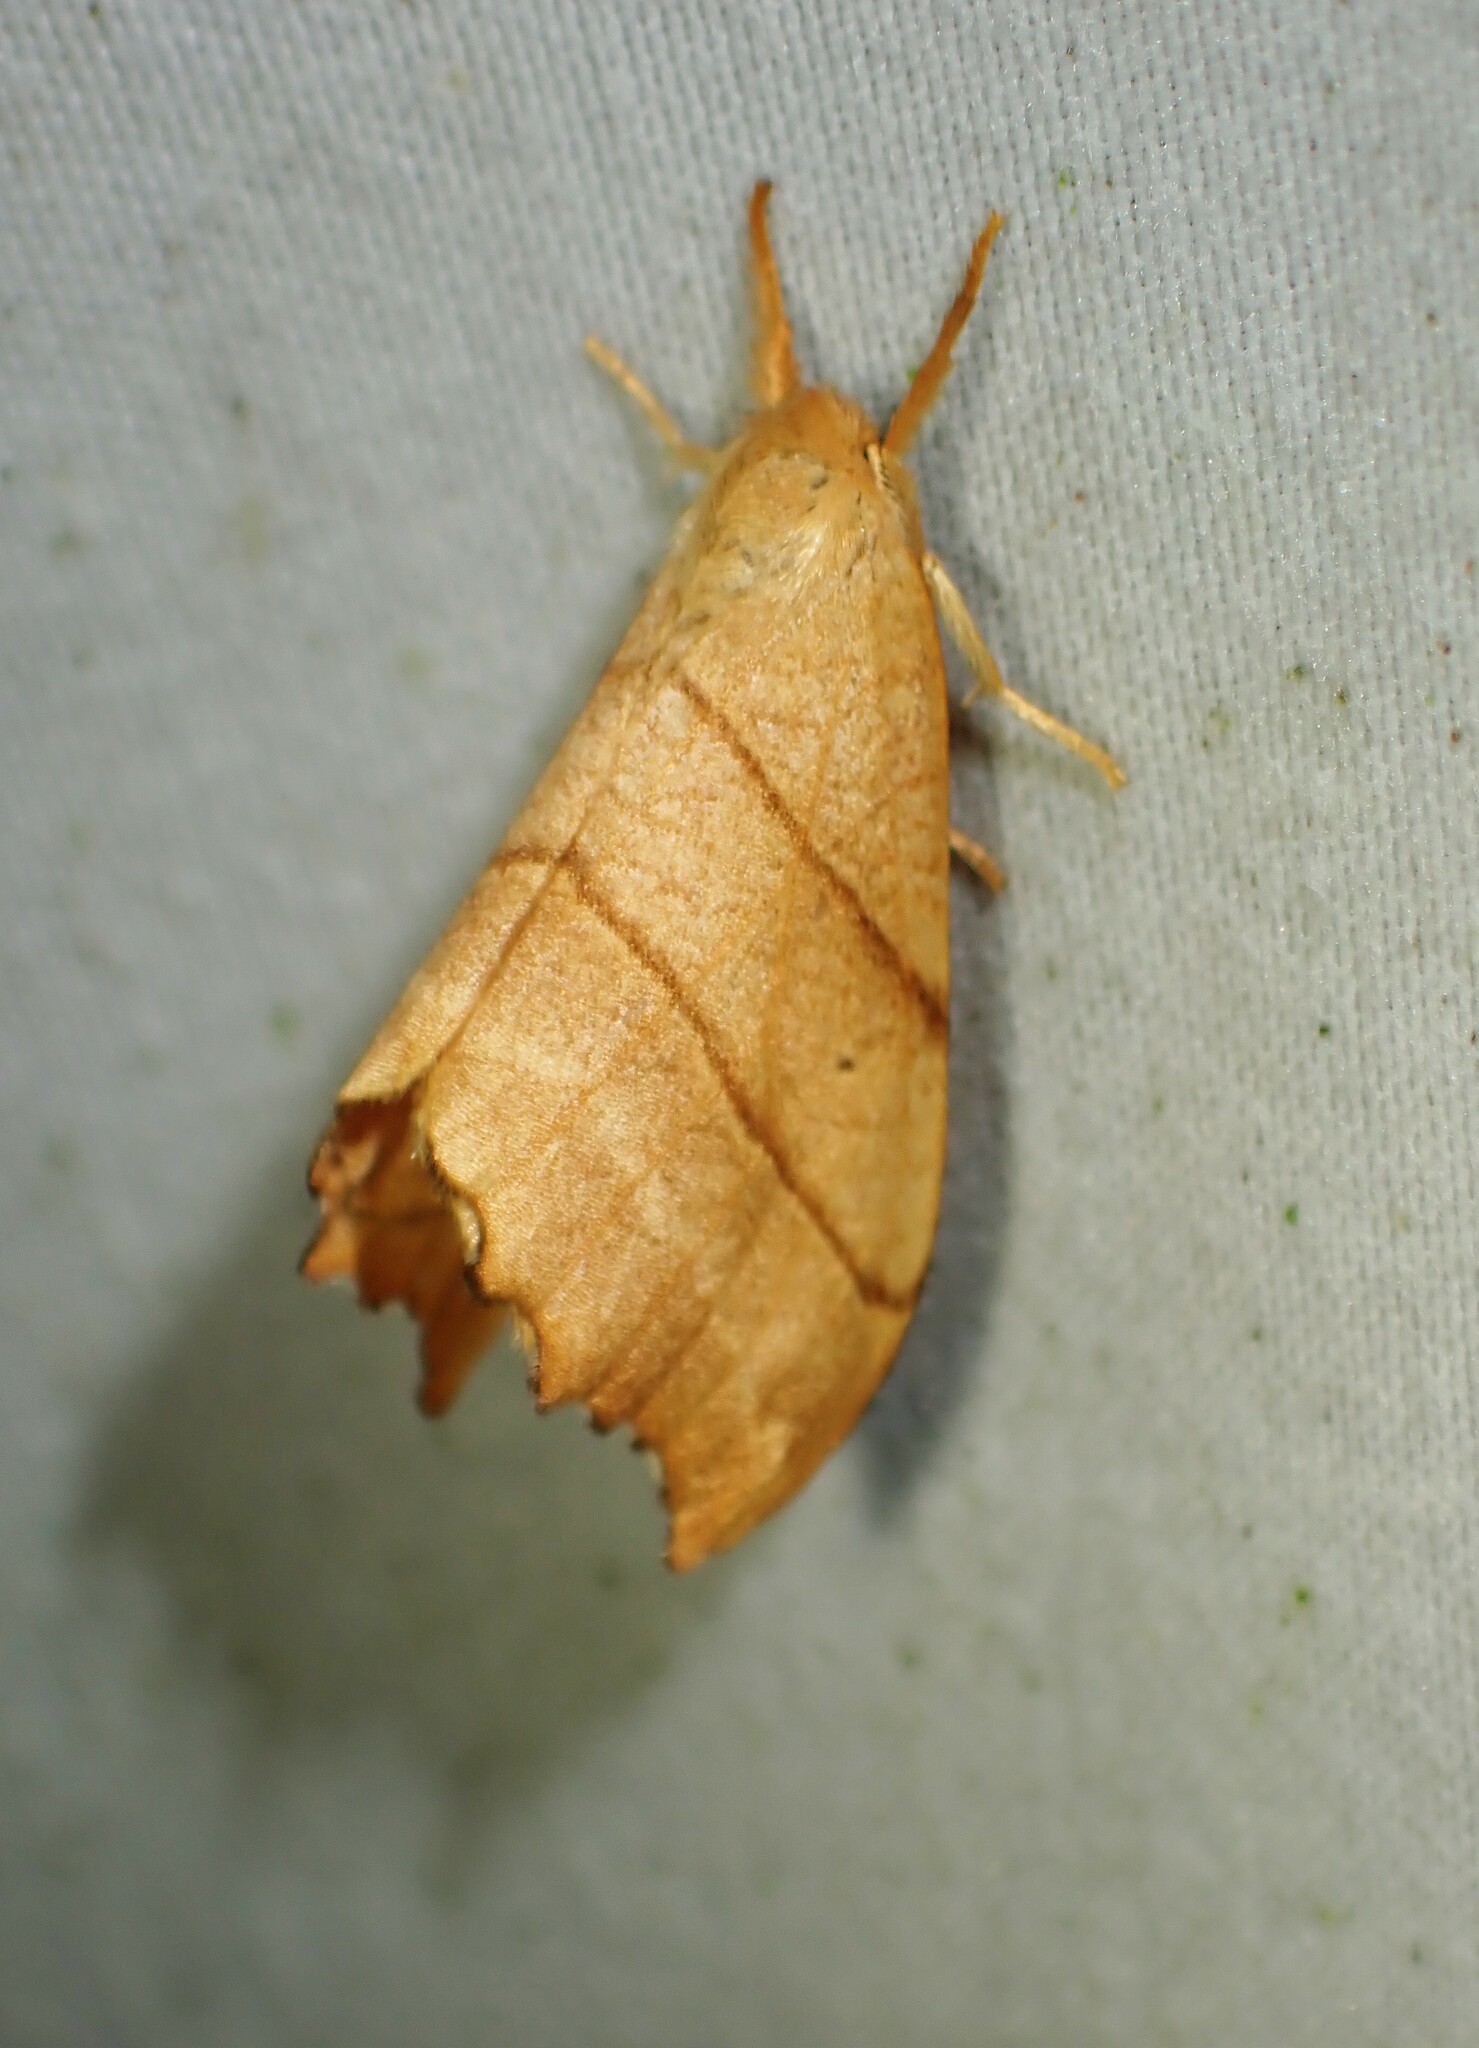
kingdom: Animalia
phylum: Arthropoda
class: Insecta
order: Lepidoptera
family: Drepanidae
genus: Falcaria
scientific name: Falcaria bilineata
